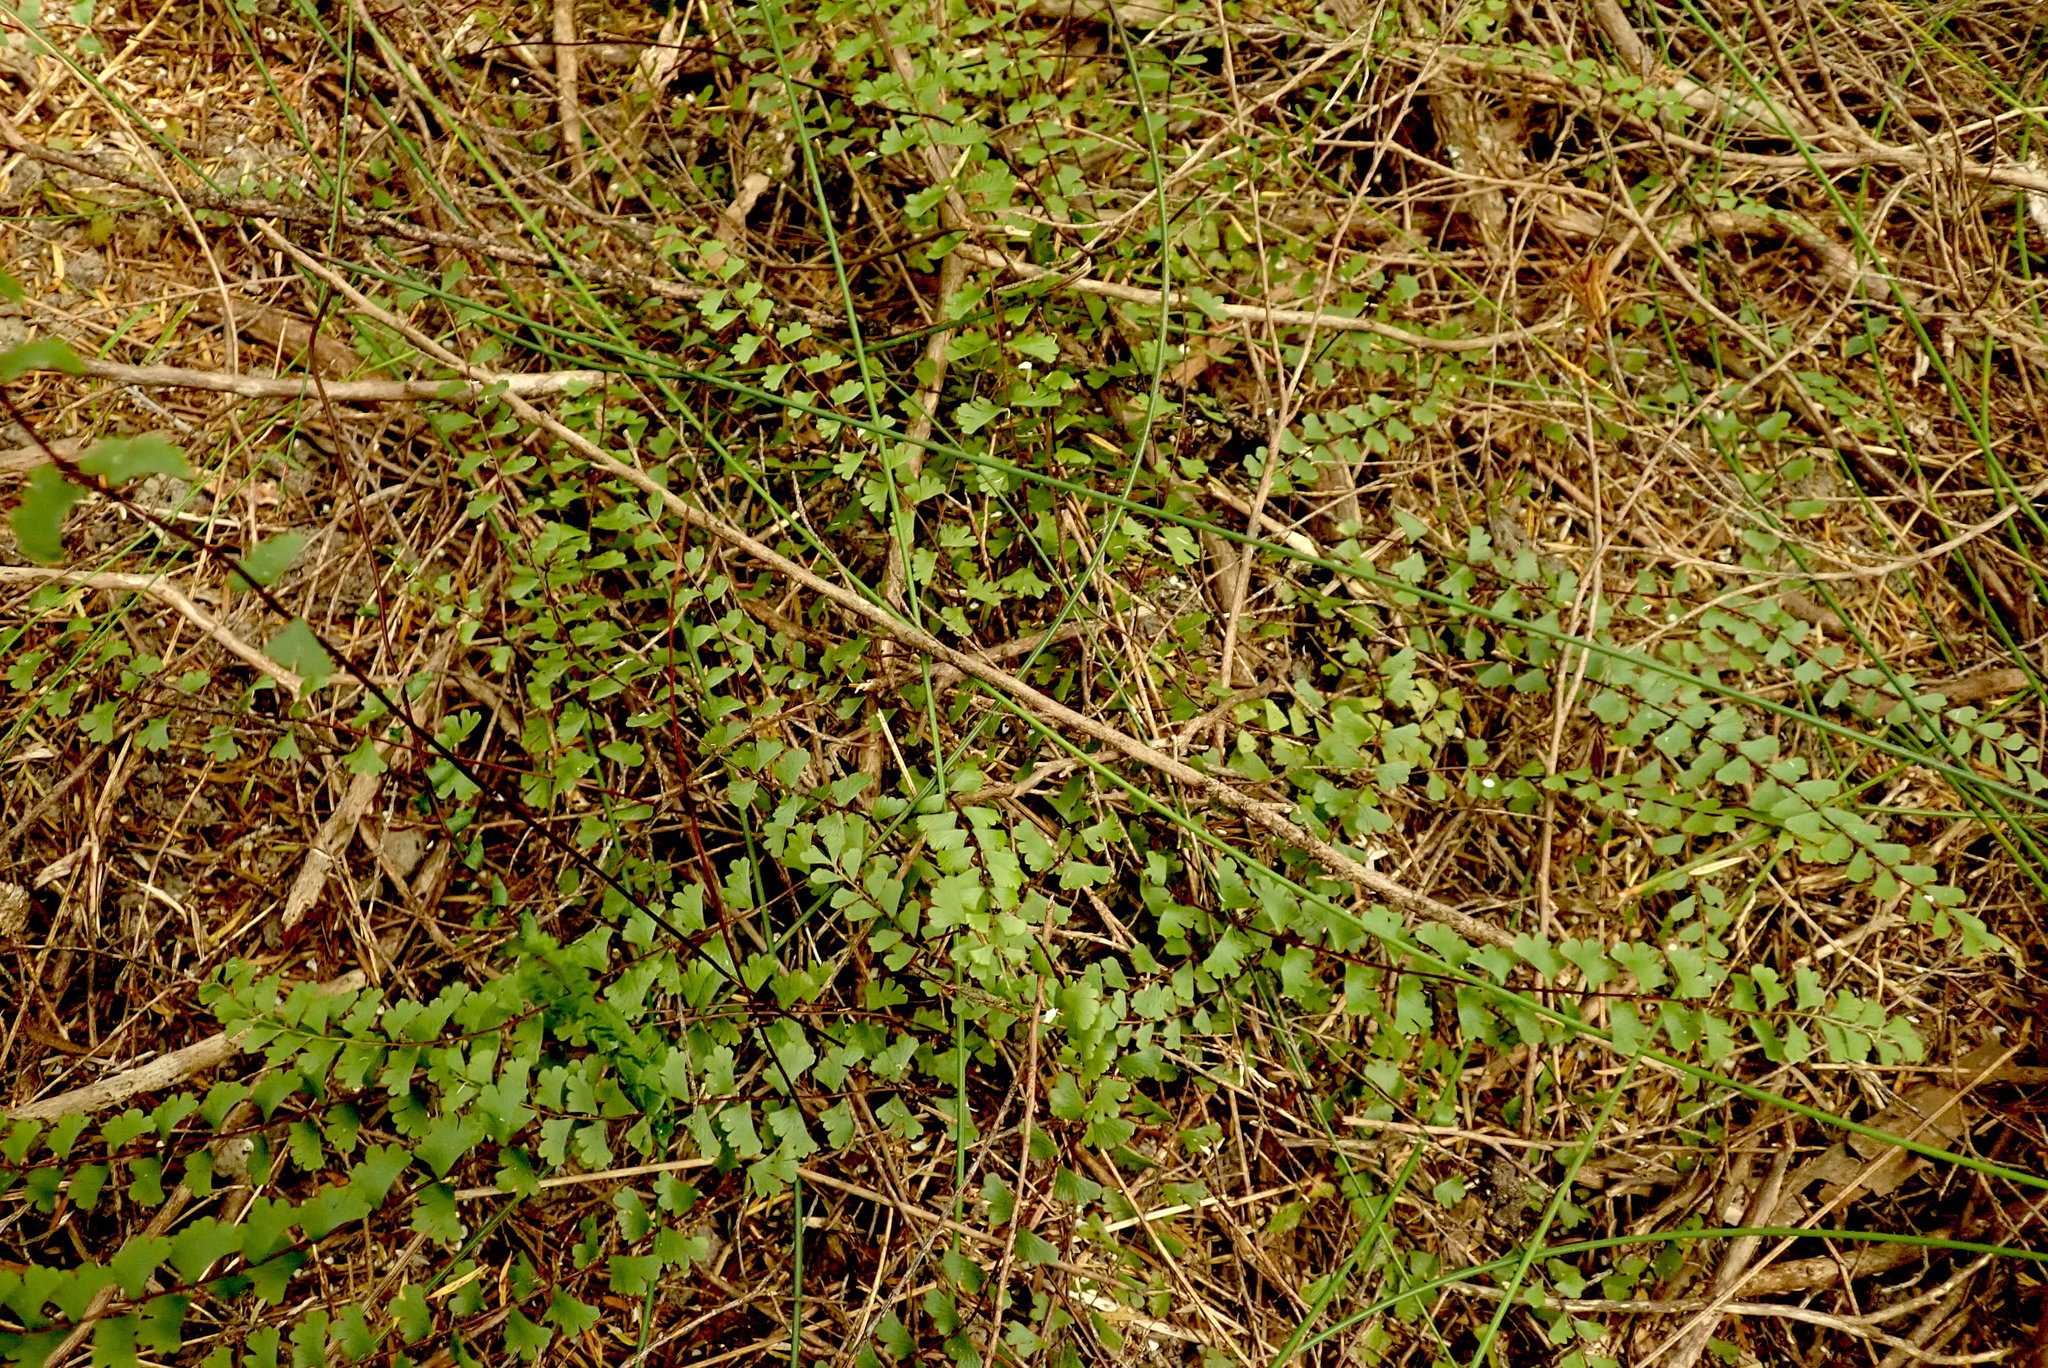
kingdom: Plantae
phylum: Tracheophyta
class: Polypodiopsida
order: Polypodiales
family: Lindsaeaceae
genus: Lindsaea
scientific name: Lindsaea linearis
